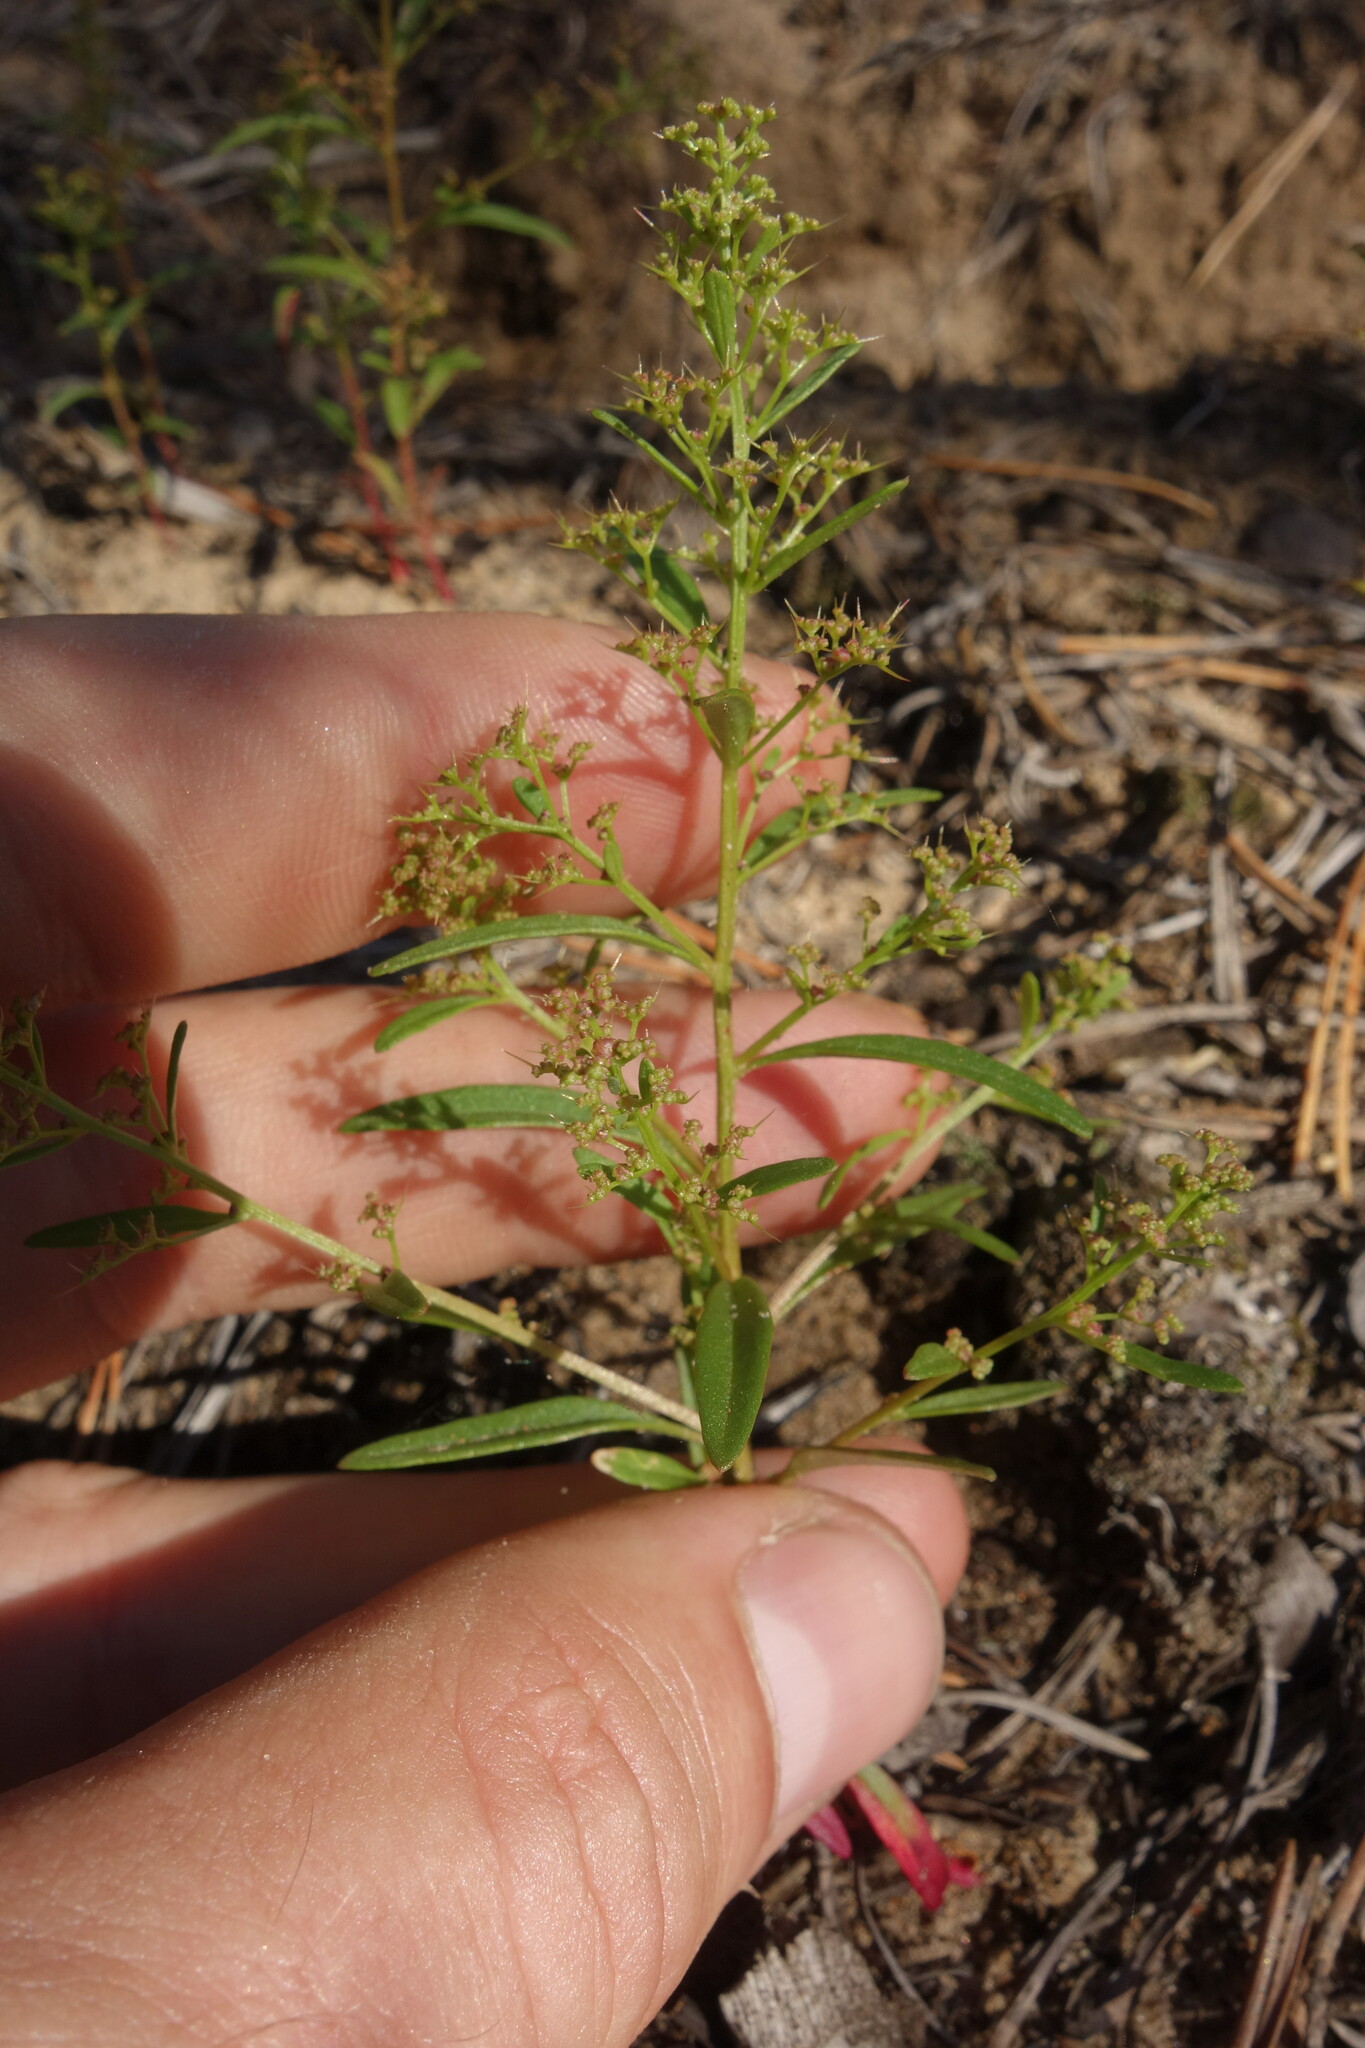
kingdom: Plantae
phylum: Tracheophyta
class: Magnoliopsida
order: Caryophyllales
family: Amaranthaceae
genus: Teloxys
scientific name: Teloxys aristata
